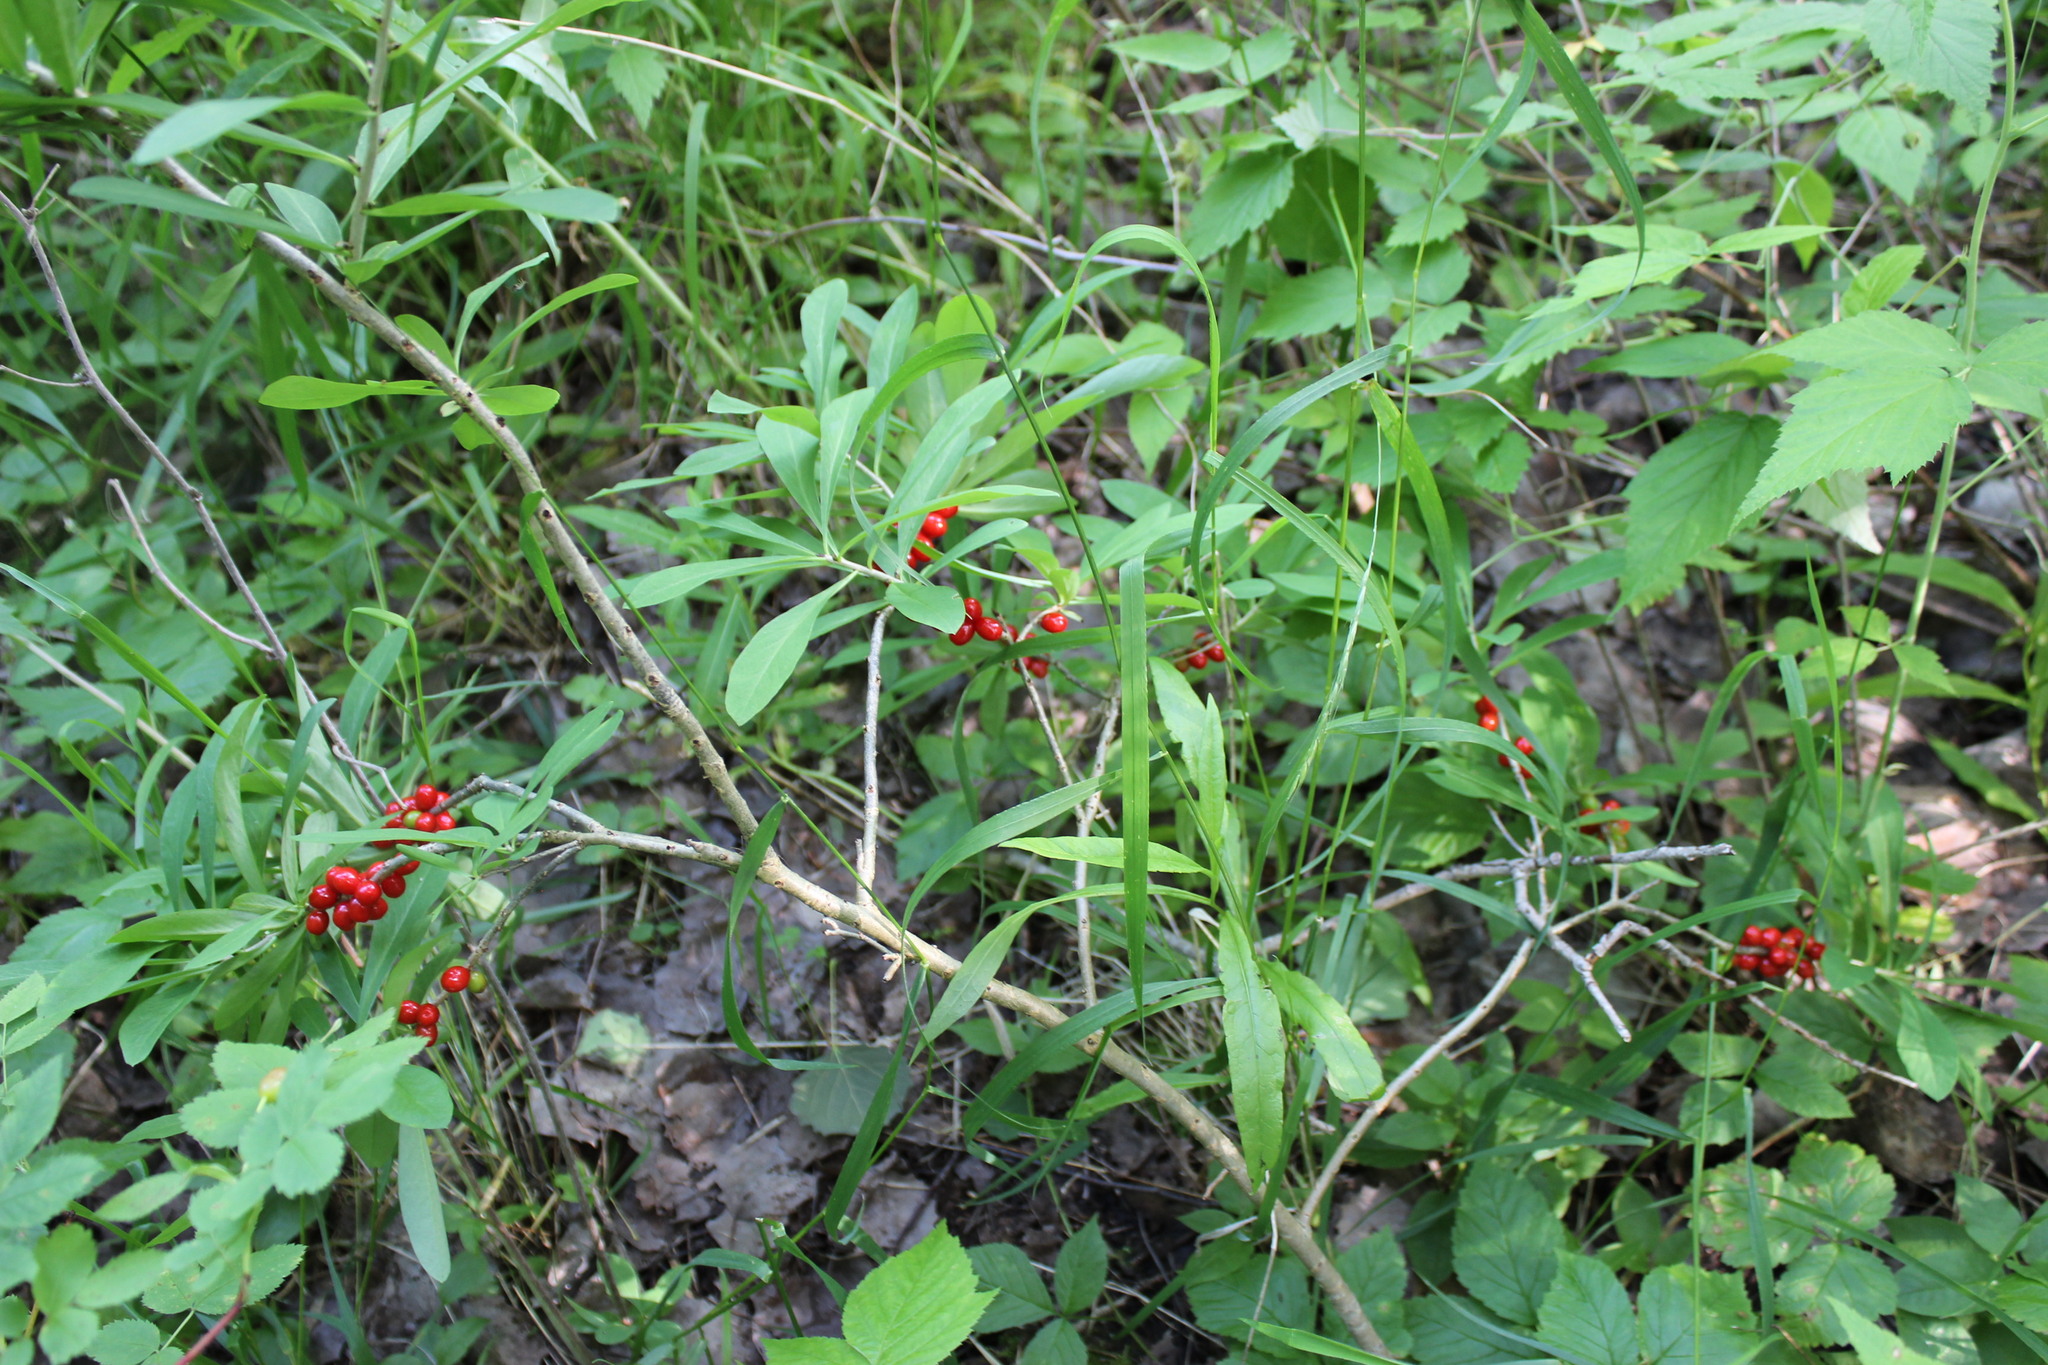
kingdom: Plantae
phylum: Tracheophyta
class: Magnoliopsida
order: Malvales
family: Thymelaeaceae
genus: Daphne
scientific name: Daphne mezereum
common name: Mezereon
